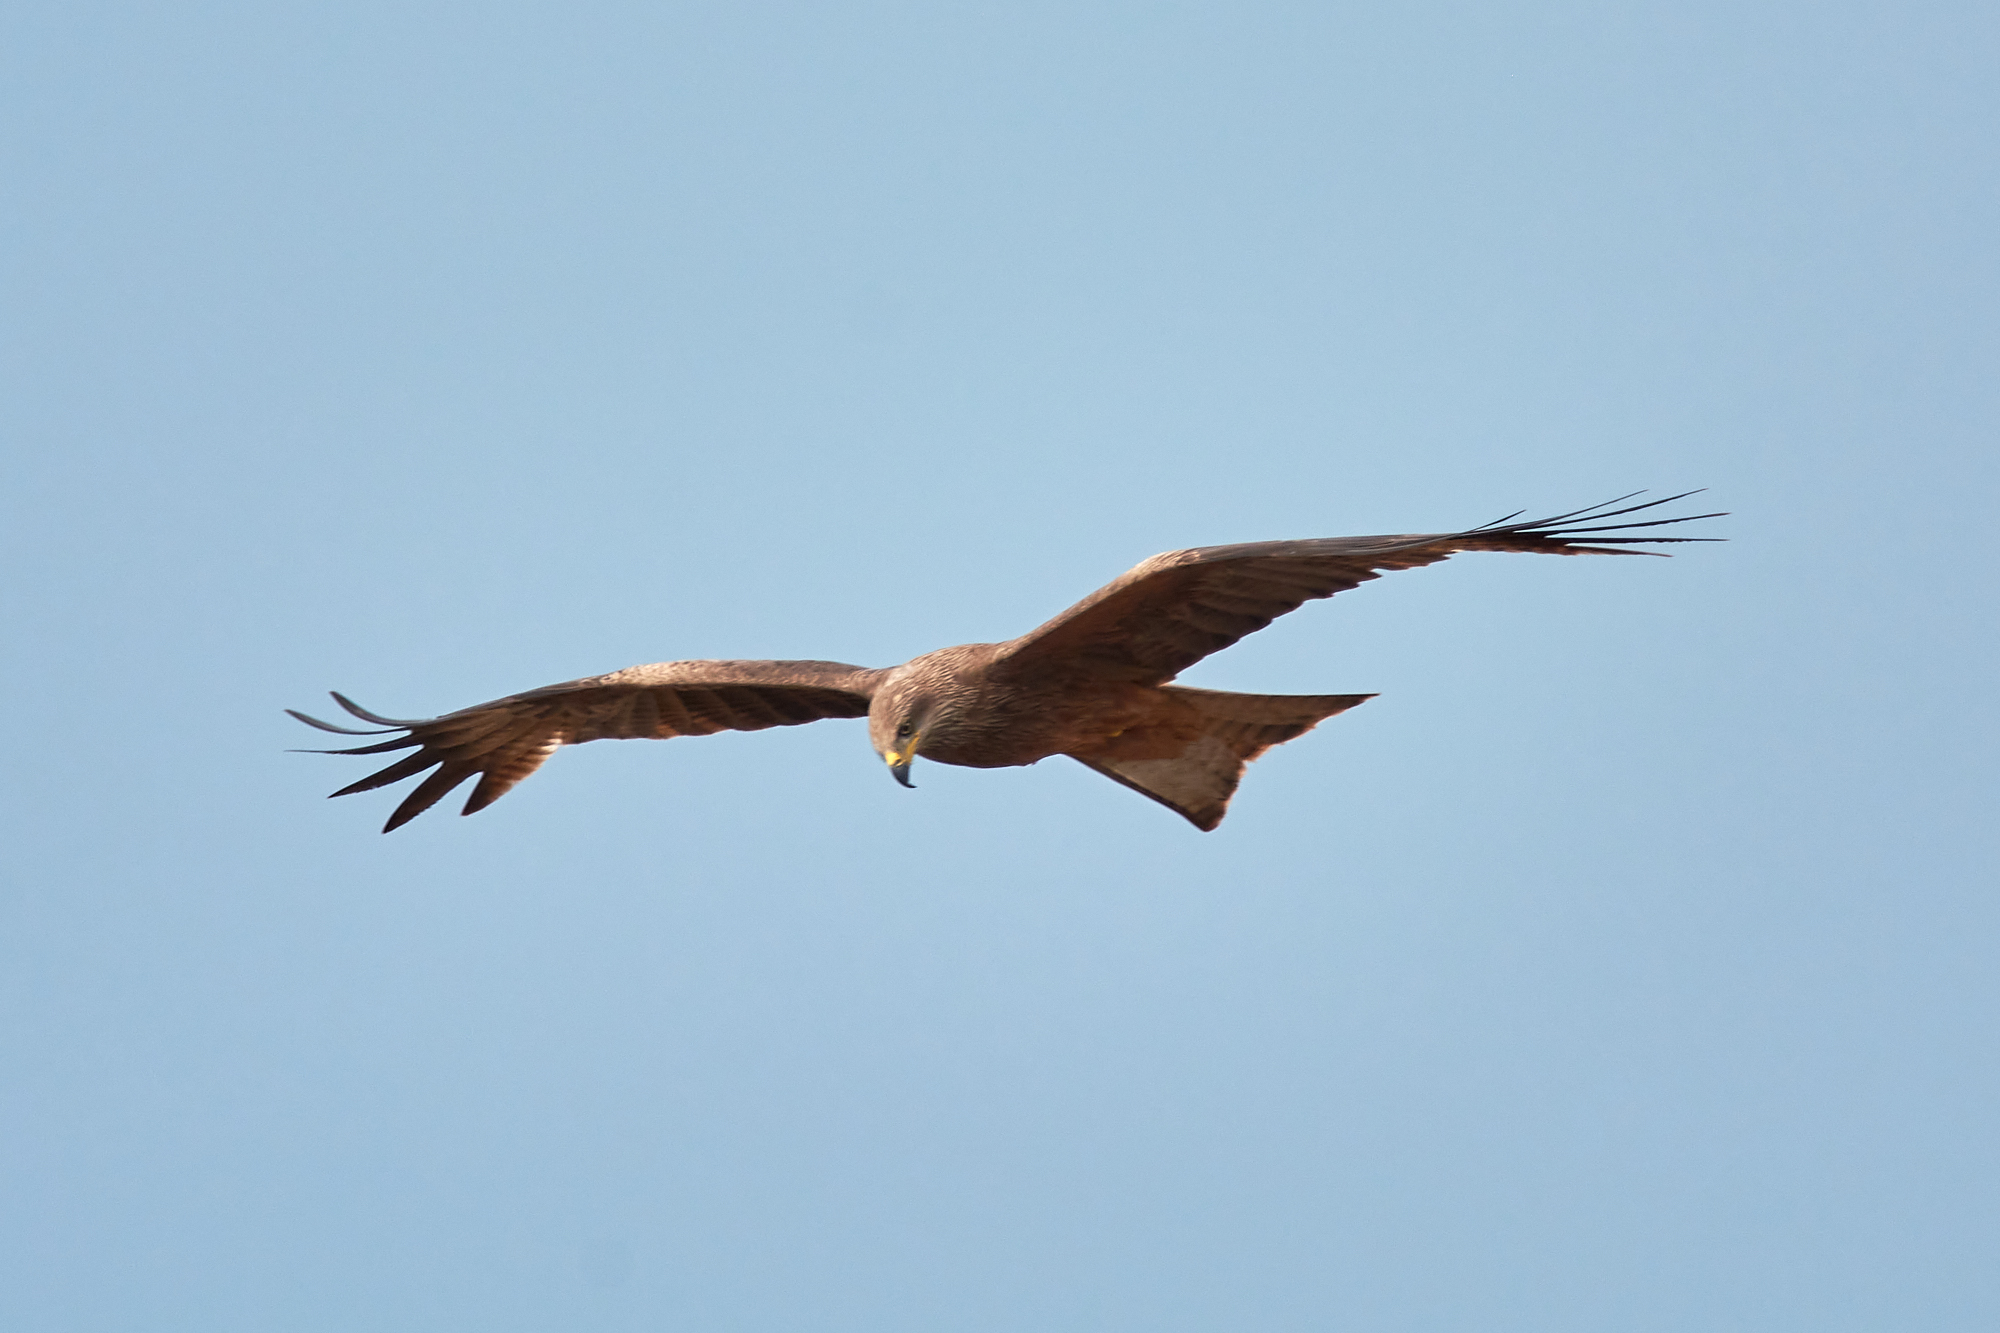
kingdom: Animalia
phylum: Chordata
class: Aves
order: Accipitriformes
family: Accipitridae
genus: Milvus
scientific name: Milvus migrans
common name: Black kite
